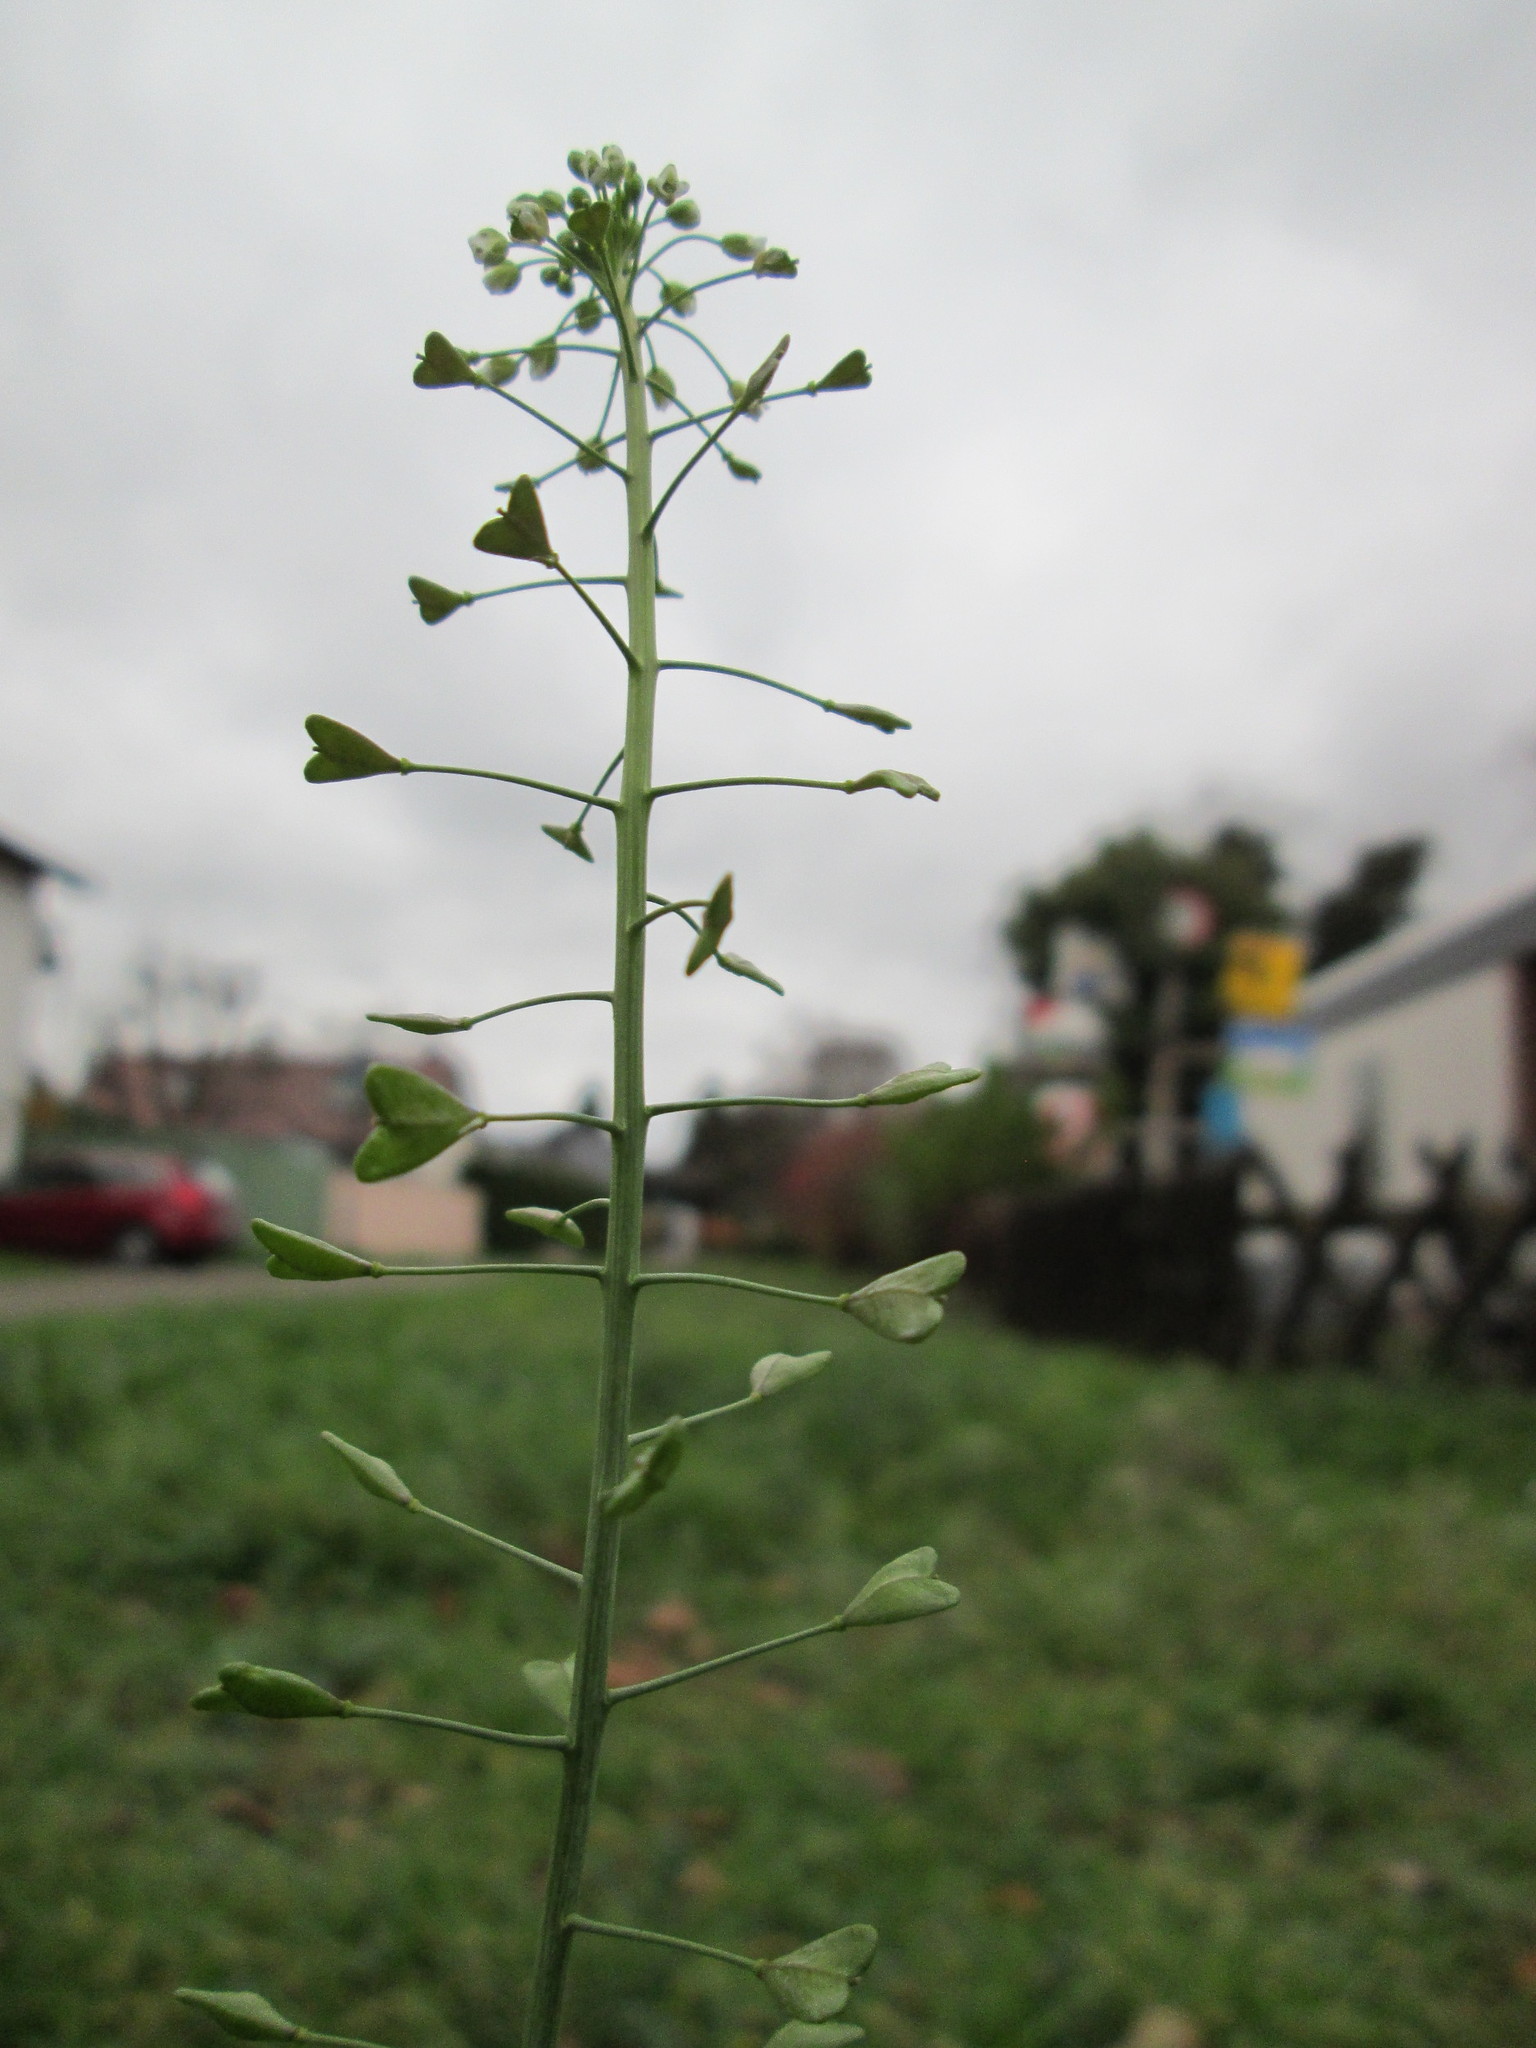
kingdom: Plantae
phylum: Tracheophyta
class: Magnoliopsida
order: Brassicales
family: Brassicaceae
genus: Capsella
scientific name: Capsella bursa-pastoris
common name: Shepherd's purse
